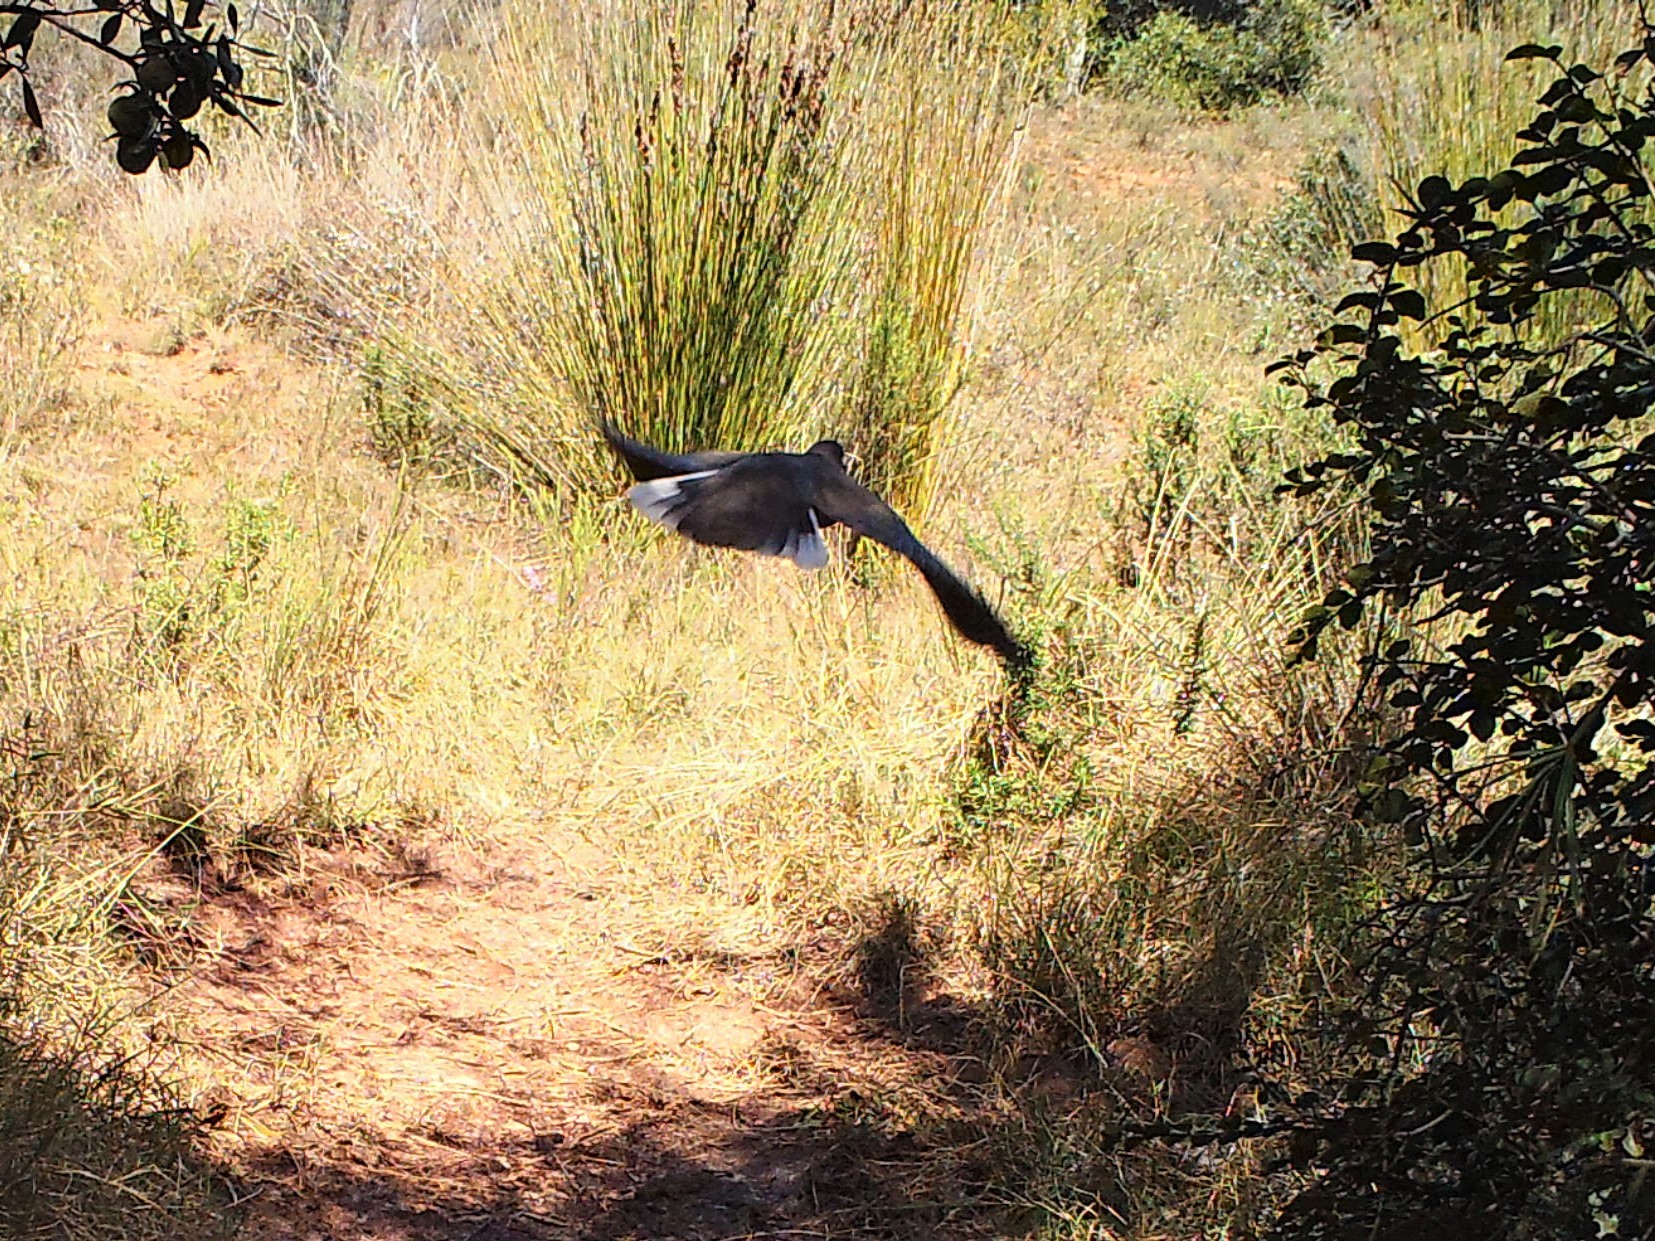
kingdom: Animalia
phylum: Chordata
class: Aves
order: Columbiformes
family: Columbidae
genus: Streptopelia
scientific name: Streptopelia capicola
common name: Ring-necked dove
